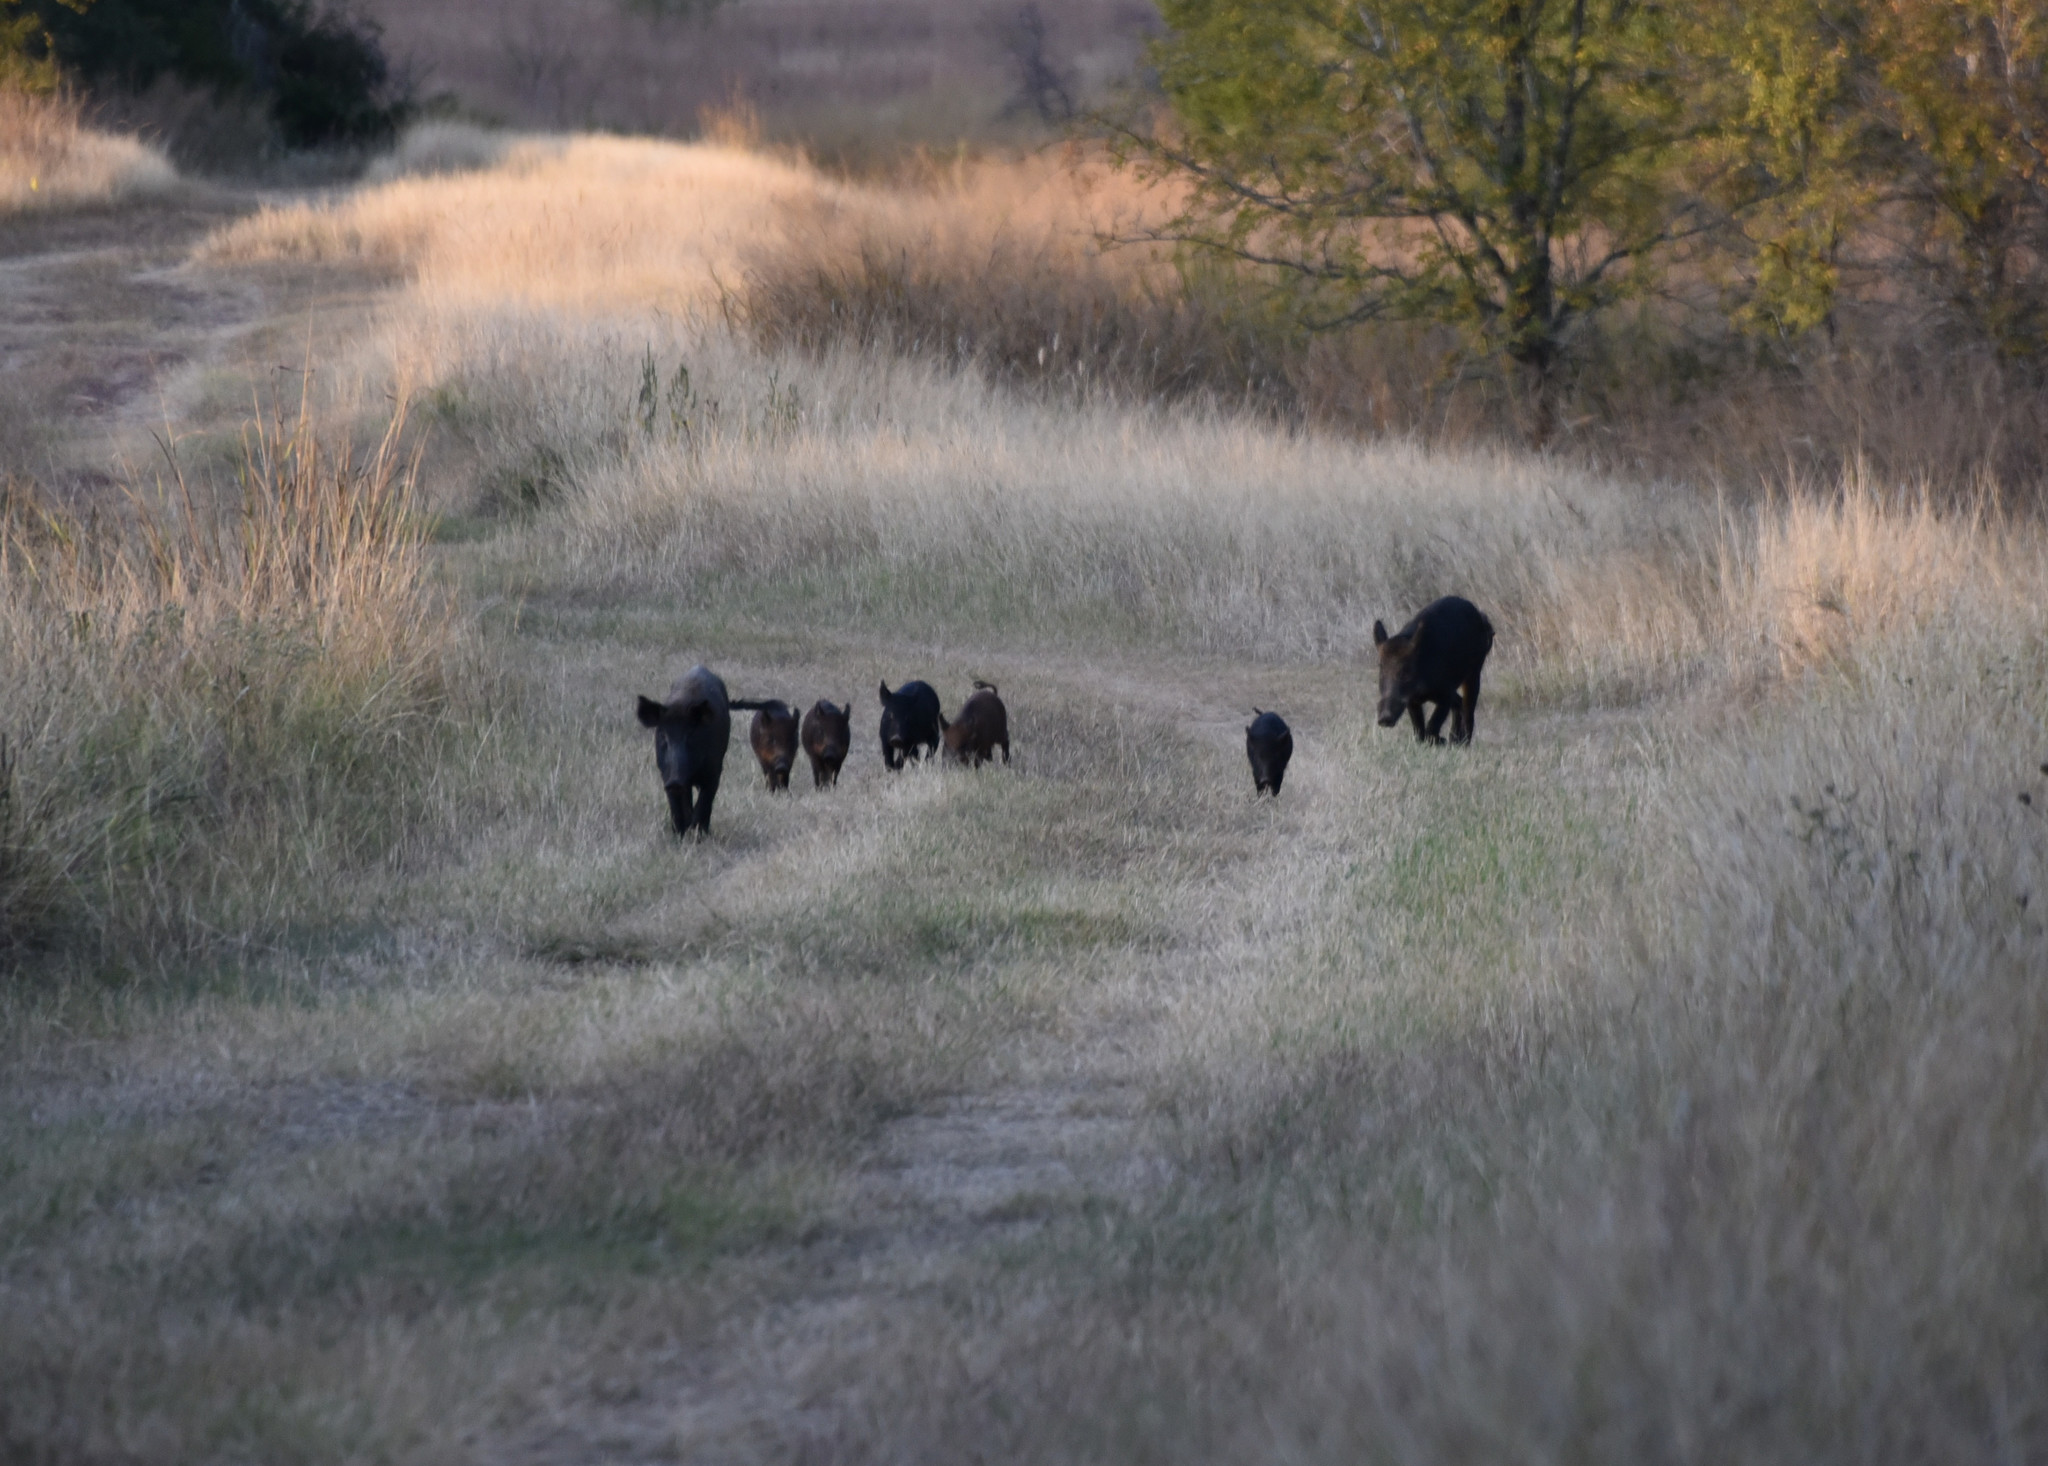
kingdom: Animalia
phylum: Chordata
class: Mammalia
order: Artiodactyla
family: Suidae
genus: Sus
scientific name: Sus scrofa
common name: Wild boar
